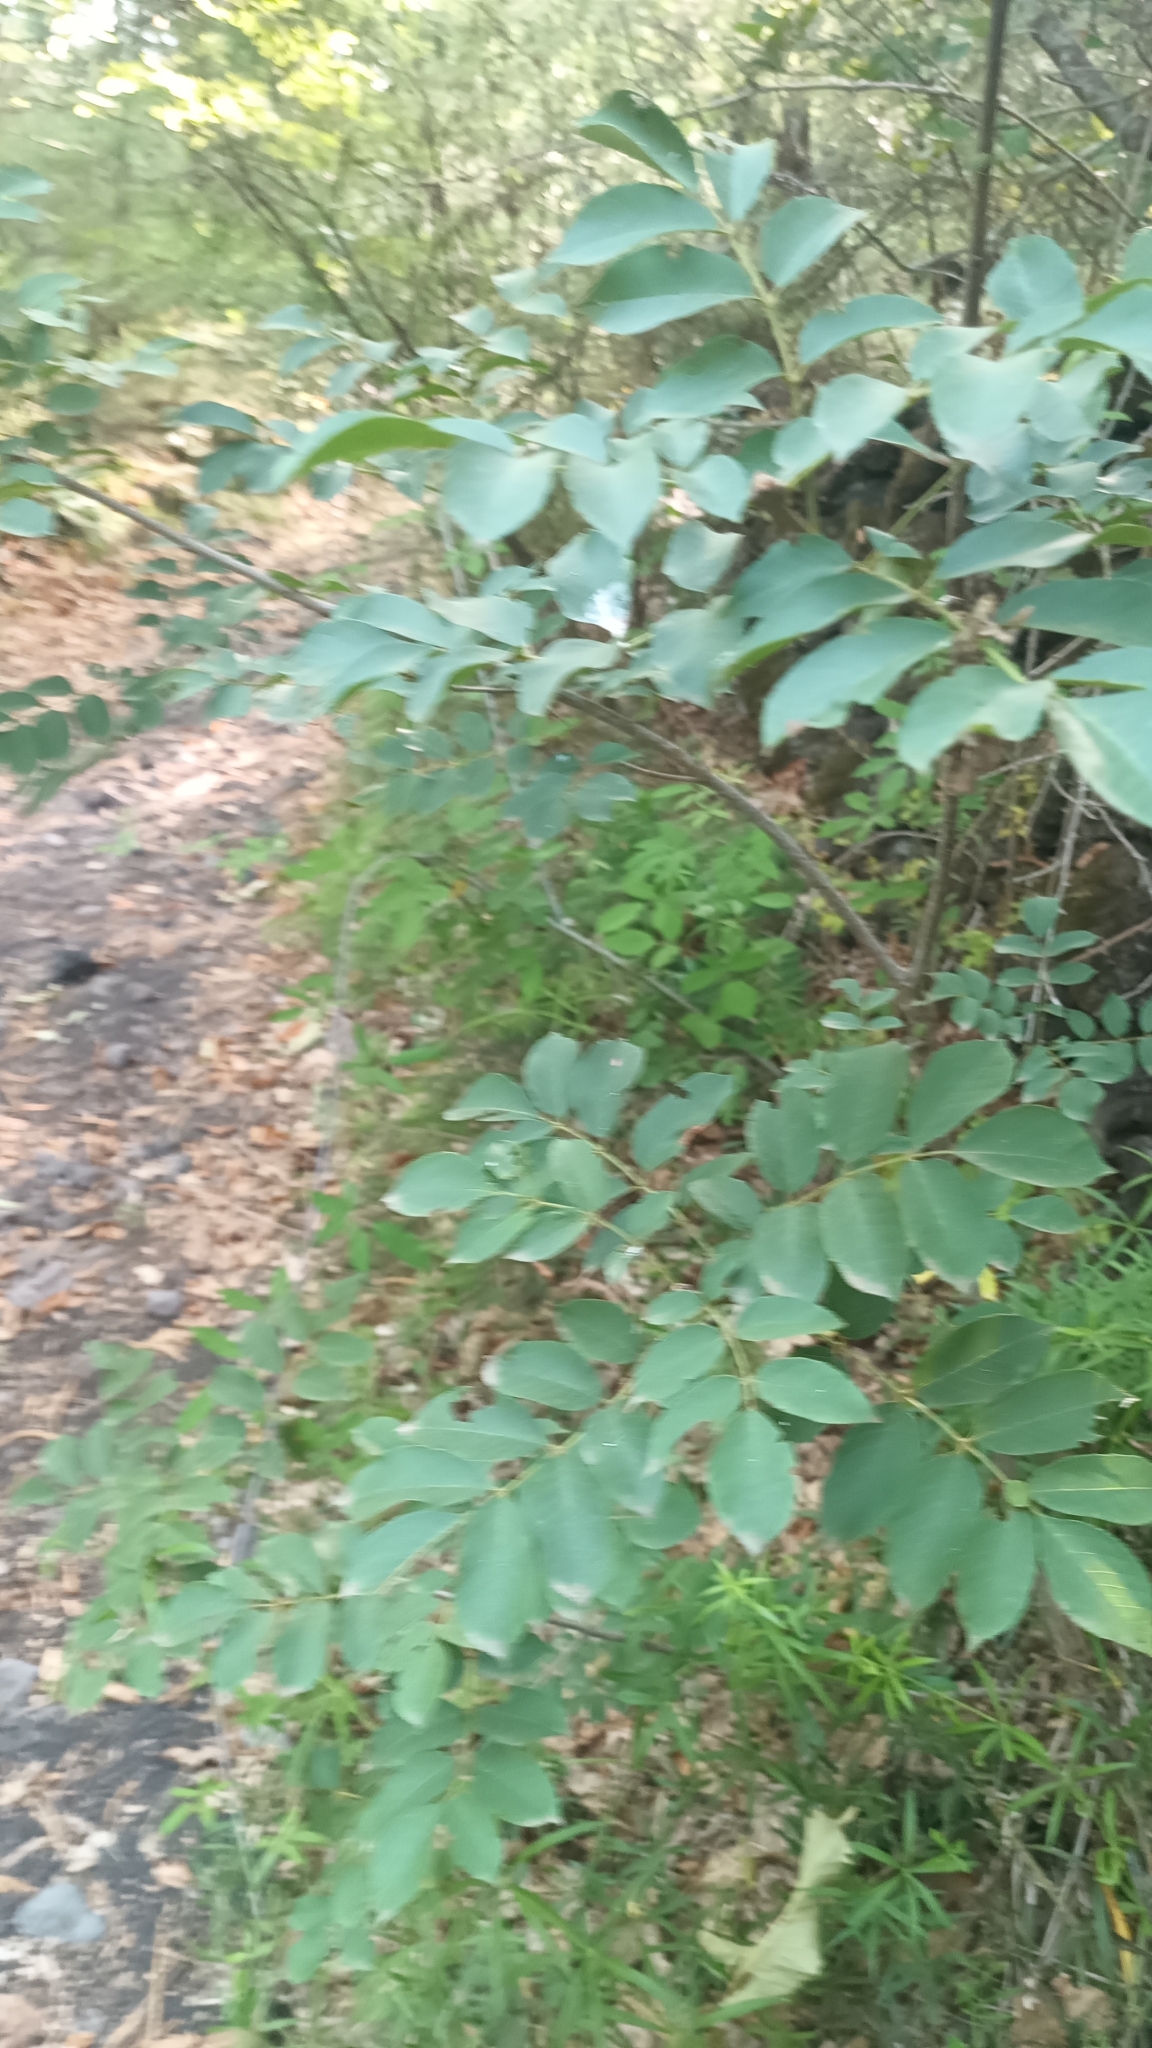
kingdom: Plantae
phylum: Tracheophyta
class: Magnoliopsida
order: Lamiales
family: Oleaceae
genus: Fraxinus
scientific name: Fraxinus ornus
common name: Manna ash
